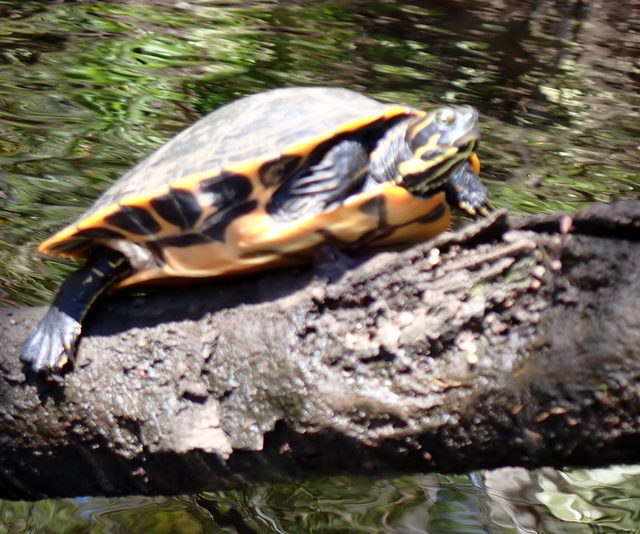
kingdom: Animalia
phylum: Chordata
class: Testudines
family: Emydidae
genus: Pseudemys
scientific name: Pseudemys concinna
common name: Eastern river cooter
